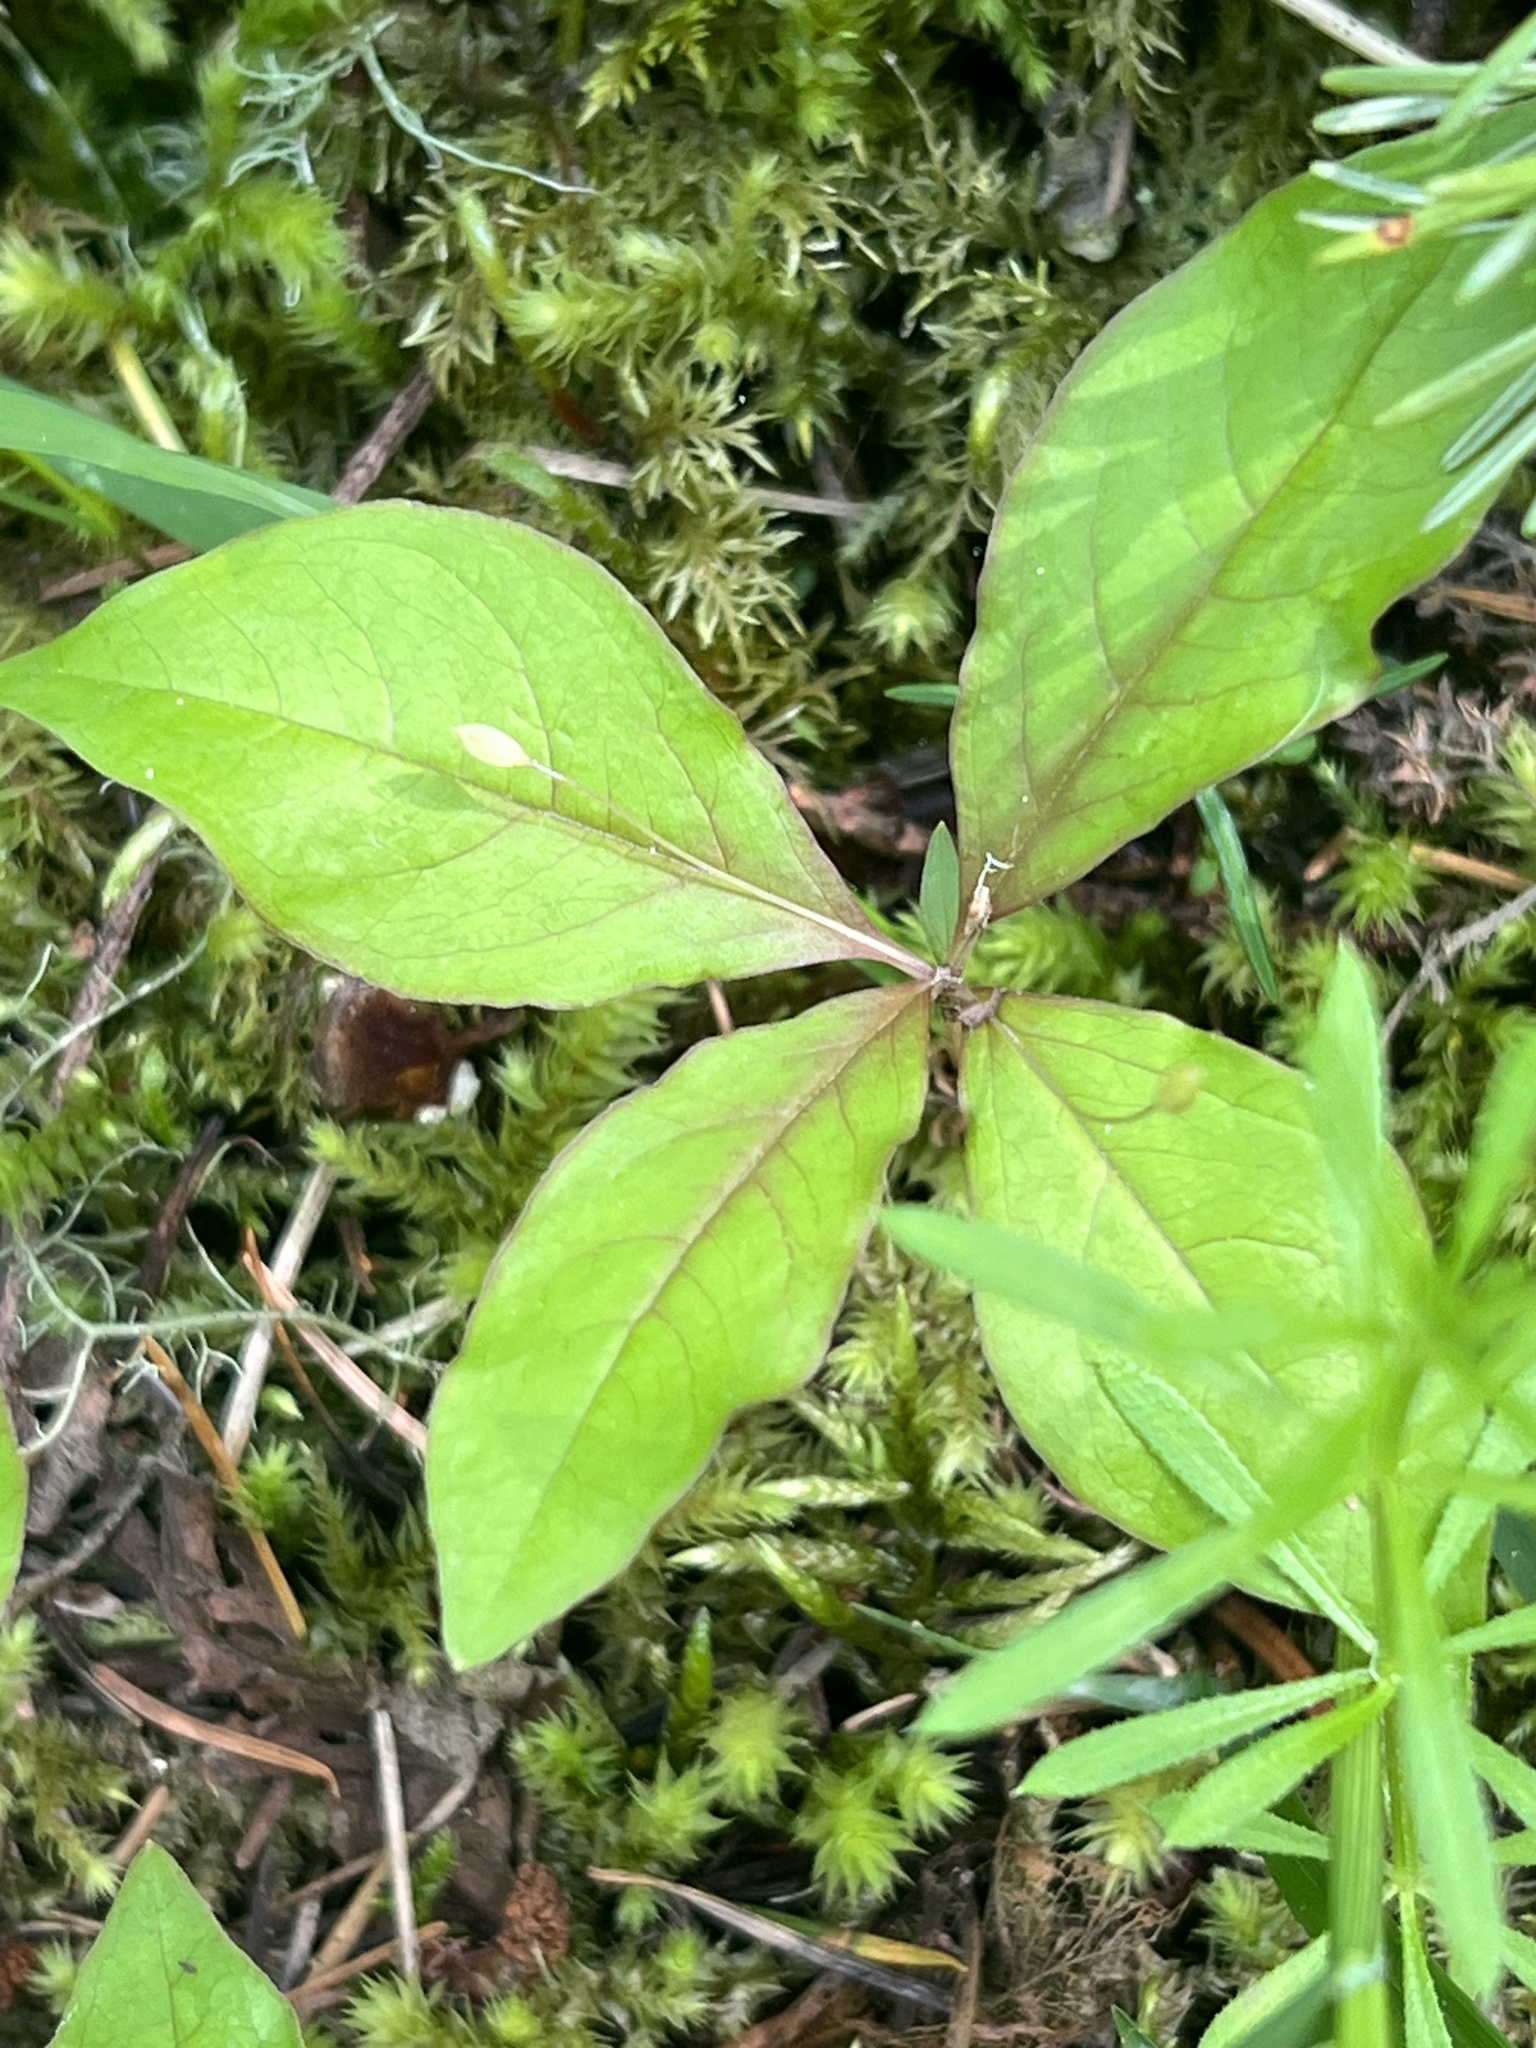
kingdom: Plantae
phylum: Tracheophyta
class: Magnoliopsida
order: Ericales
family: Primulaceae
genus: Lysimachia
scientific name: Lysimachia latifolia
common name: Pacific starflower
